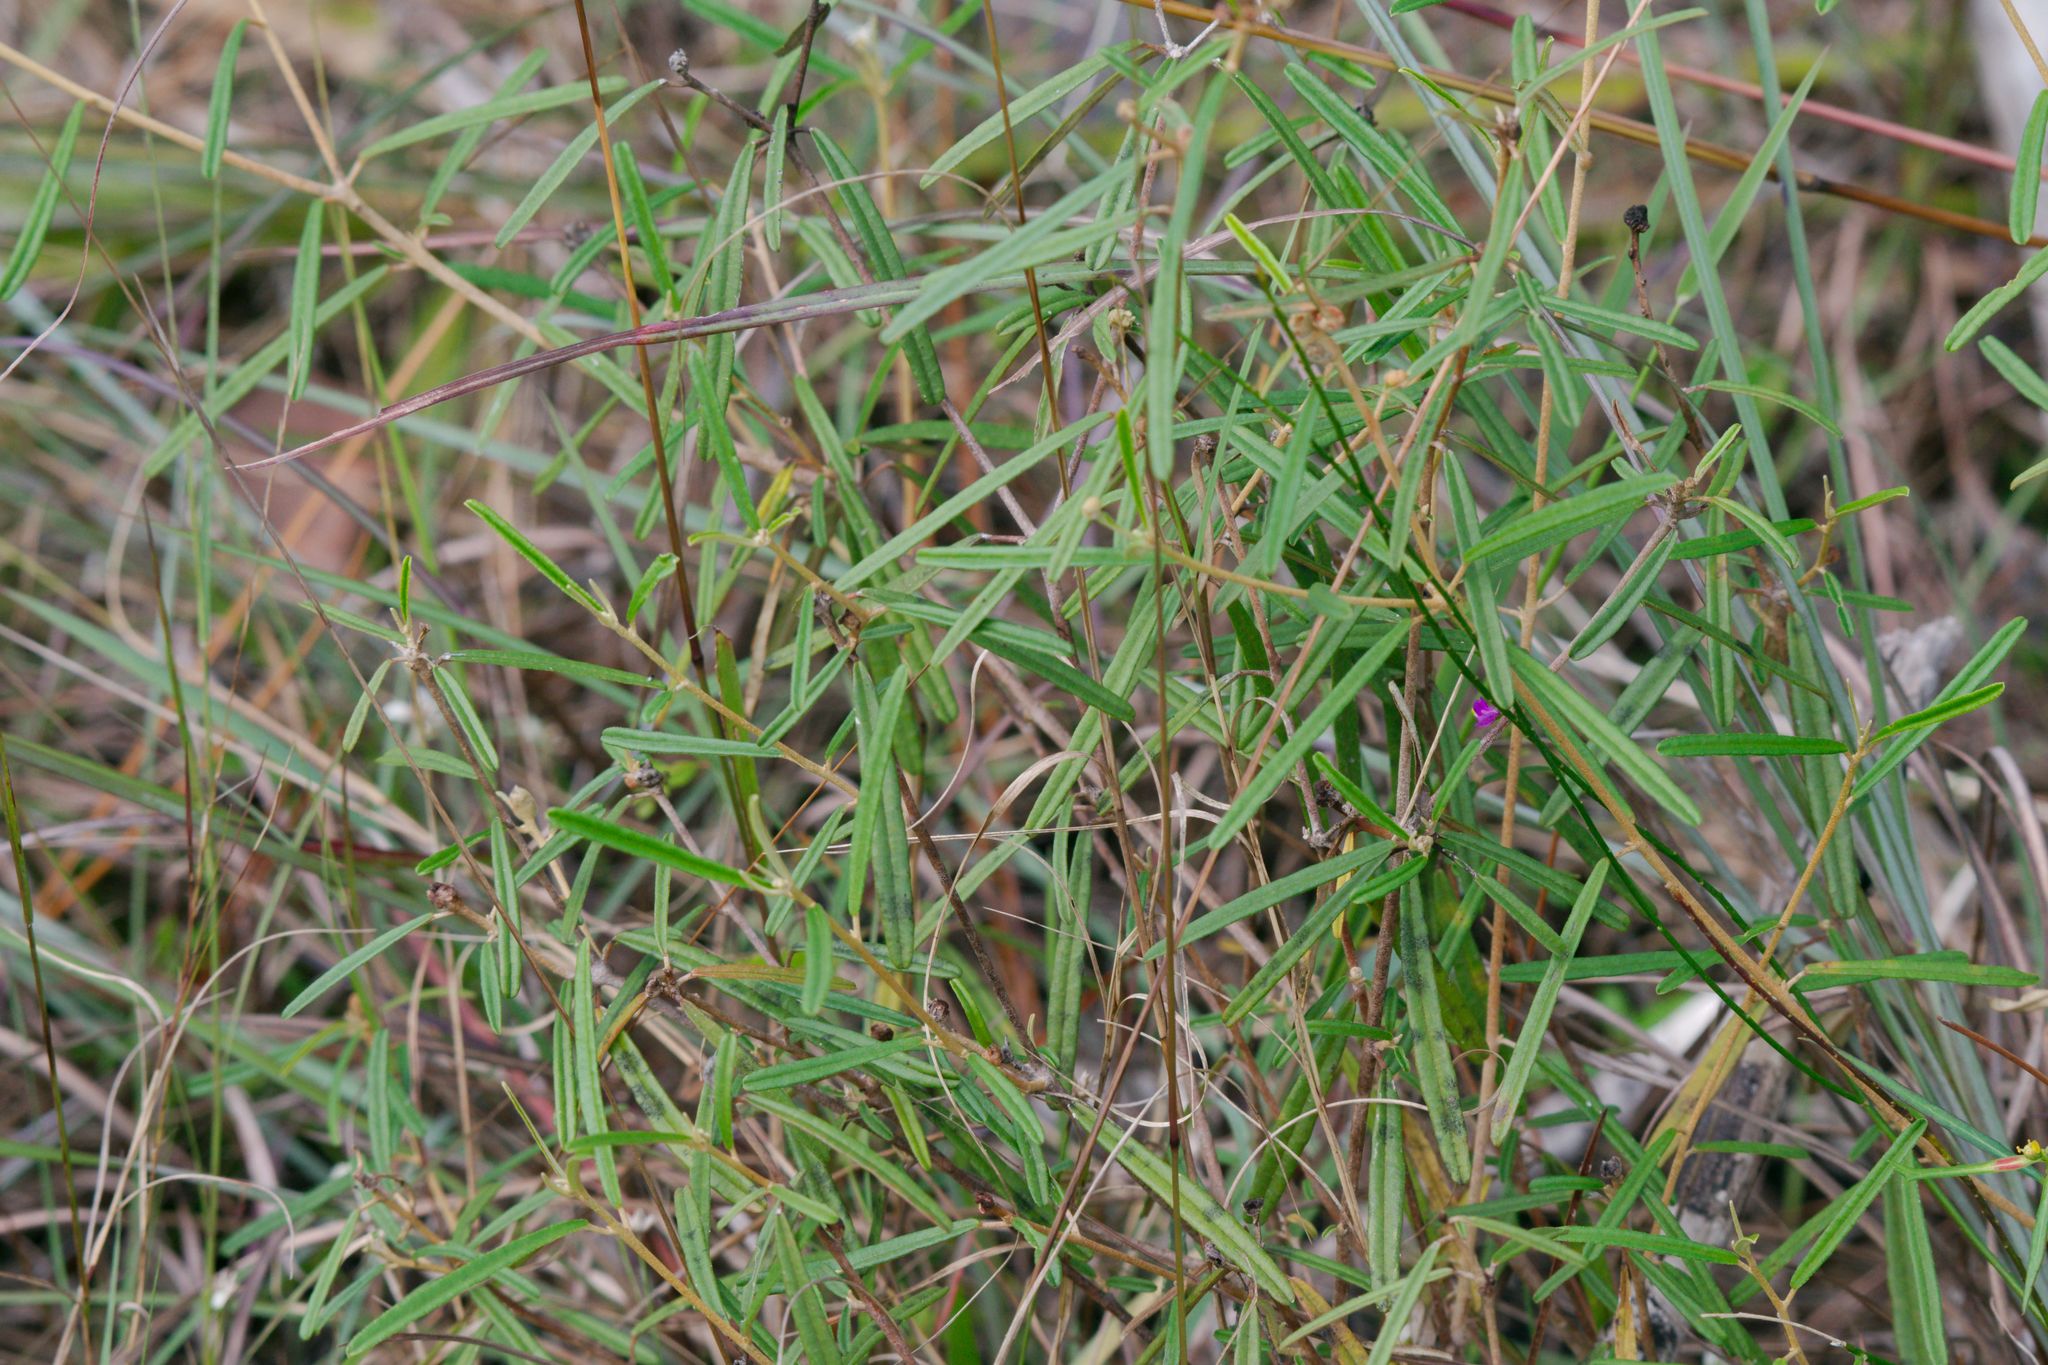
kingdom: Plantae
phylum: Tracheophyta
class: Magnoliopsida
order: Malpighiales
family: Euphorbiaceae
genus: Croton
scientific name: Croton linearis
